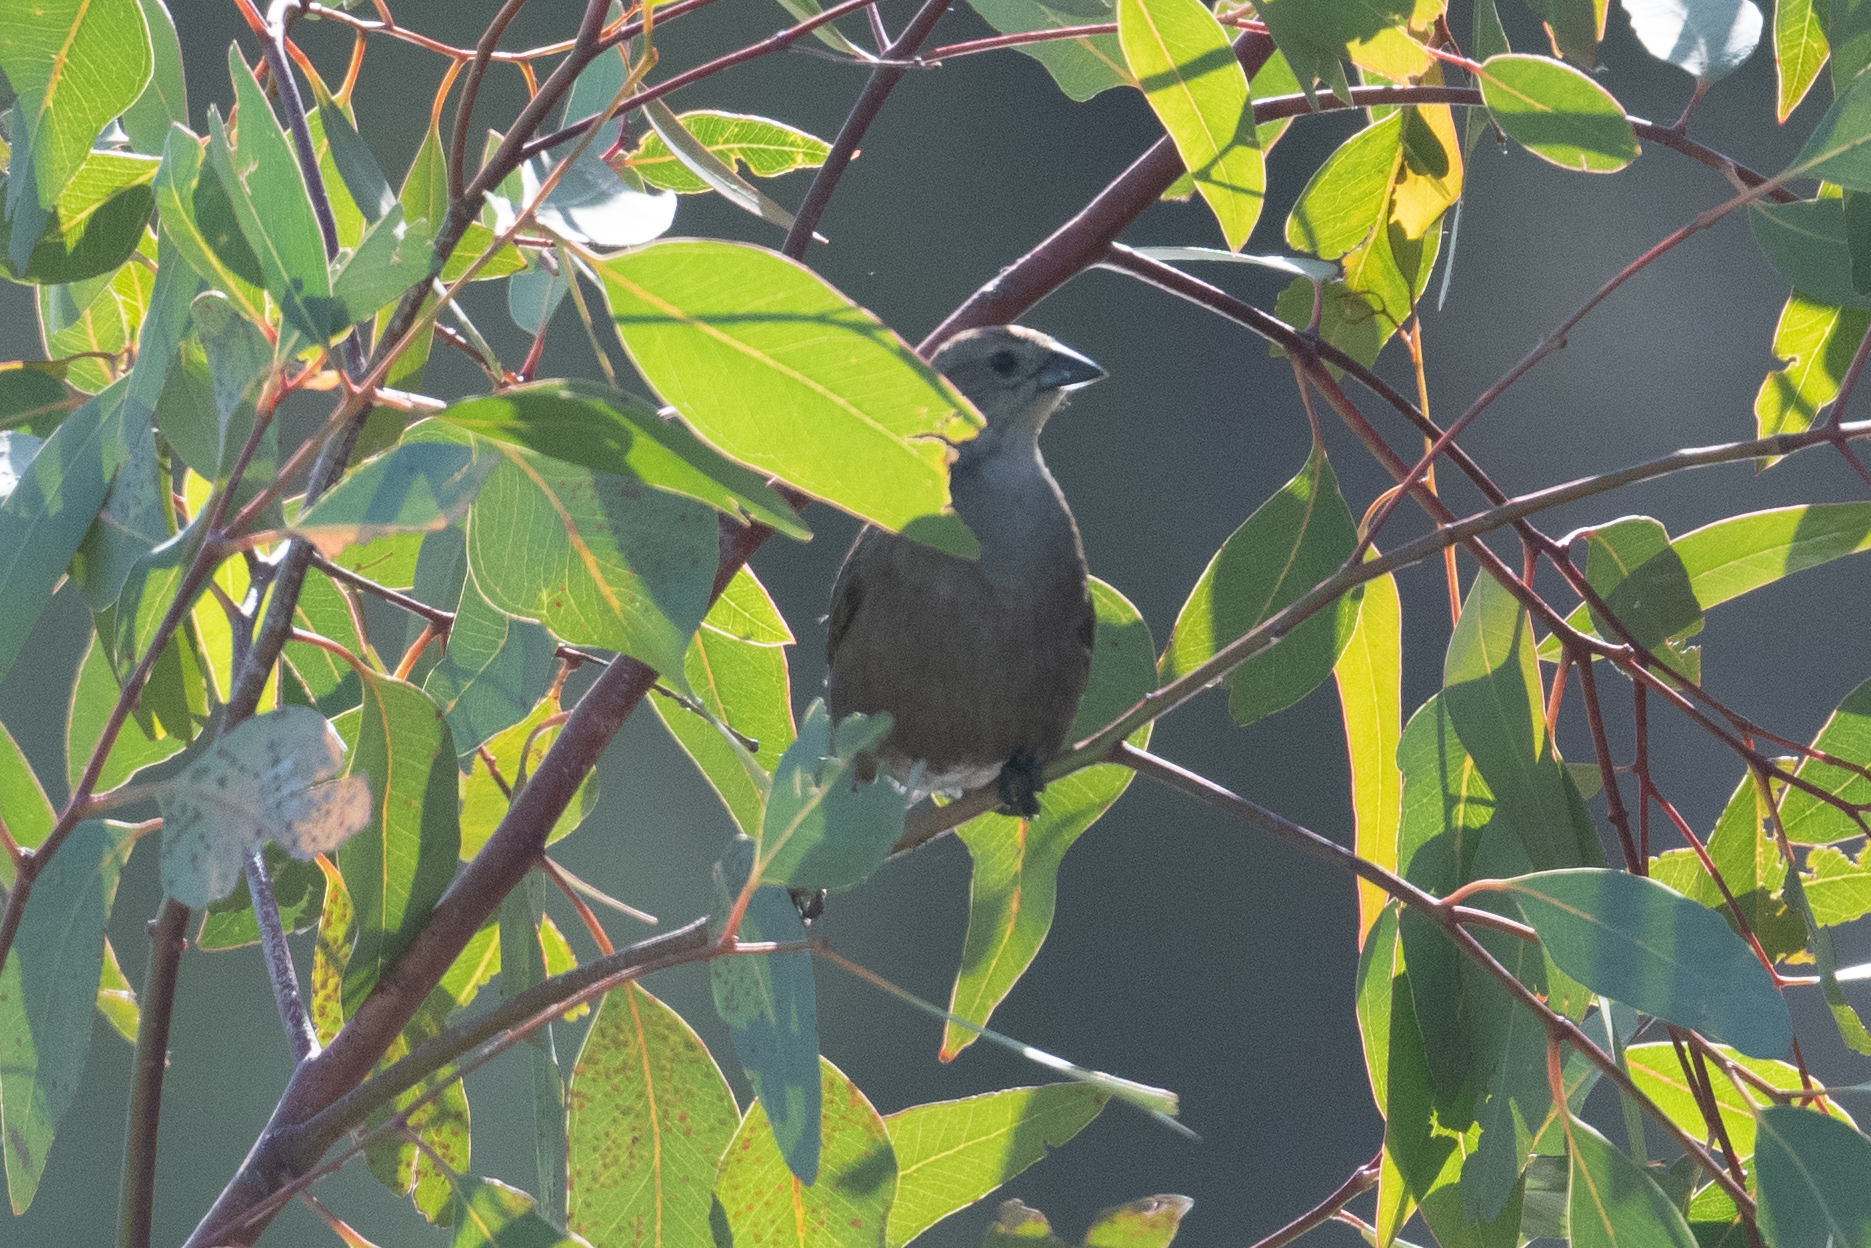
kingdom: Animalia
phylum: Chordata
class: Aves
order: Passeriformes
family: Icteridae
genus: Molothrus
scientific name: Molothrus ater
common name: Brown-headed cowbird
